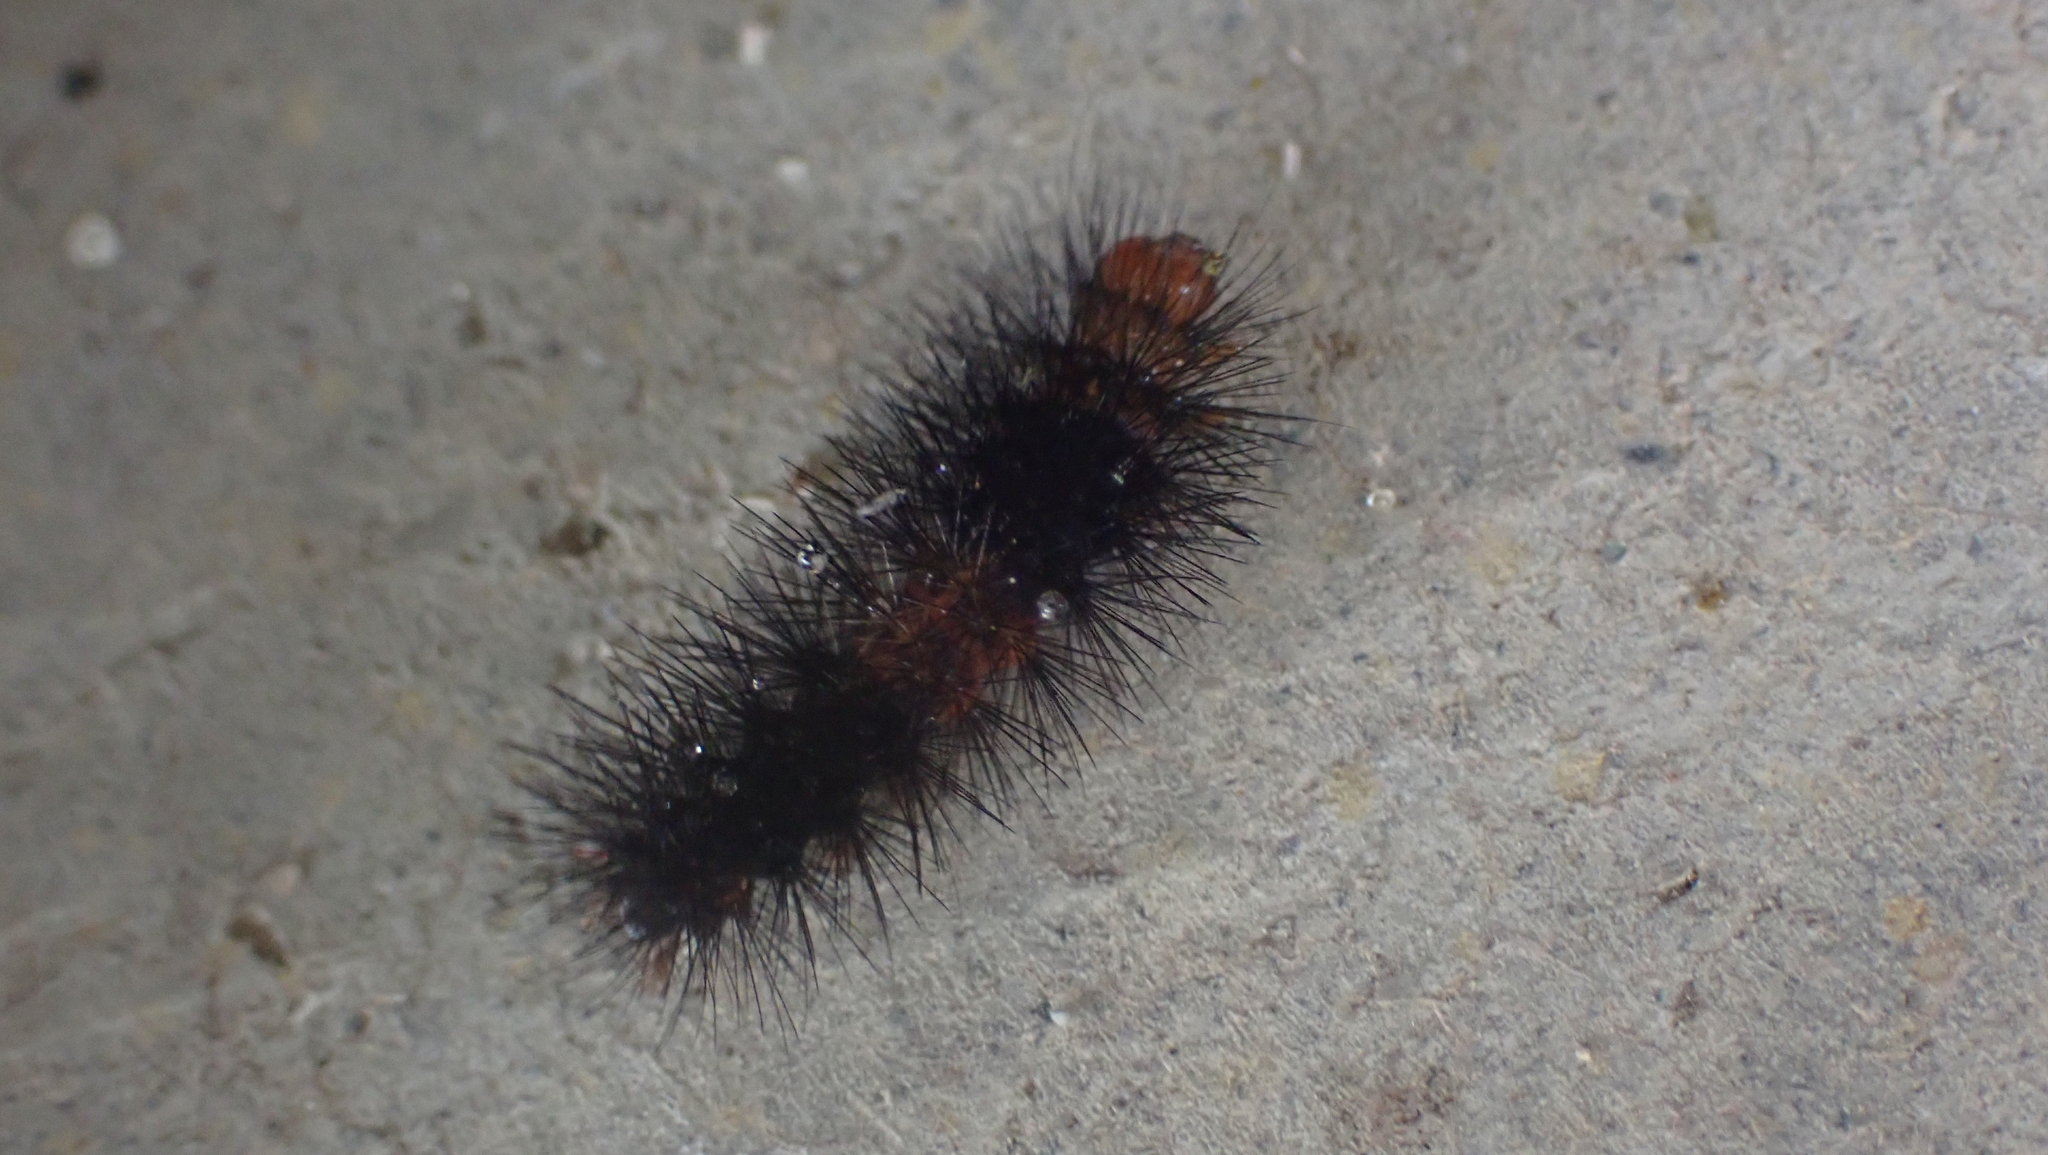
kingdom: Animalia
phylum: Arthropoda
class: Insecta
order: Lepidoptera
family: Erebidae
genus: Hypercompe
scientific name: Hypercompe scribonia
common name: Giant leopard moth
